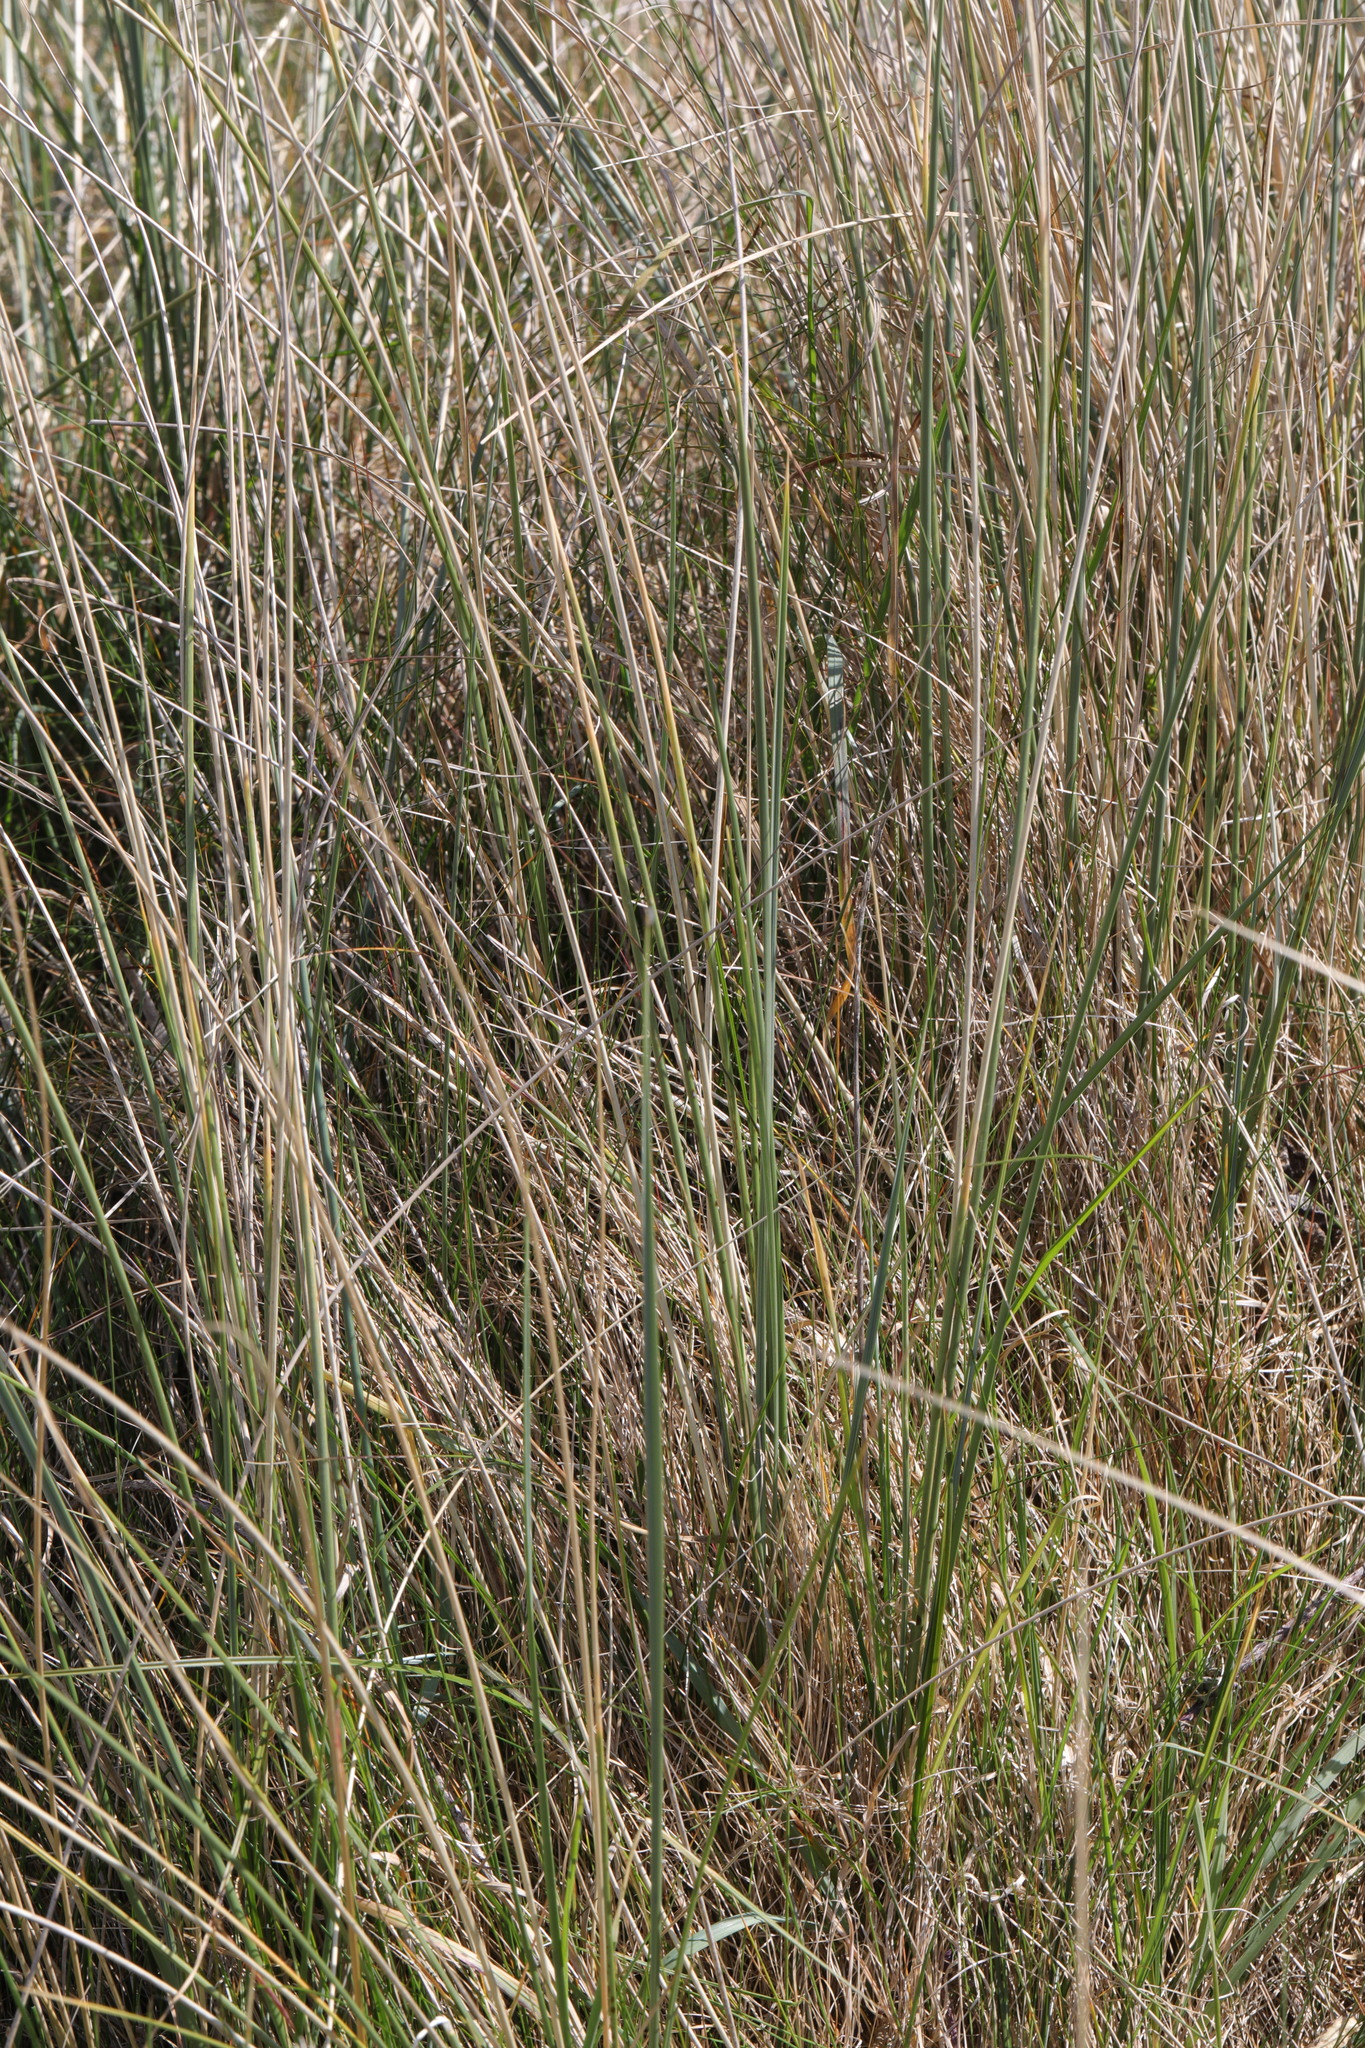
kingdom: Plantae
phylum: Tracheophyta
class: Liliopsida
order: Poales
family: Poaceae
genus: Calamagrostis
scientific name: Calamagrostis arenaria
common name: European beachgrass
